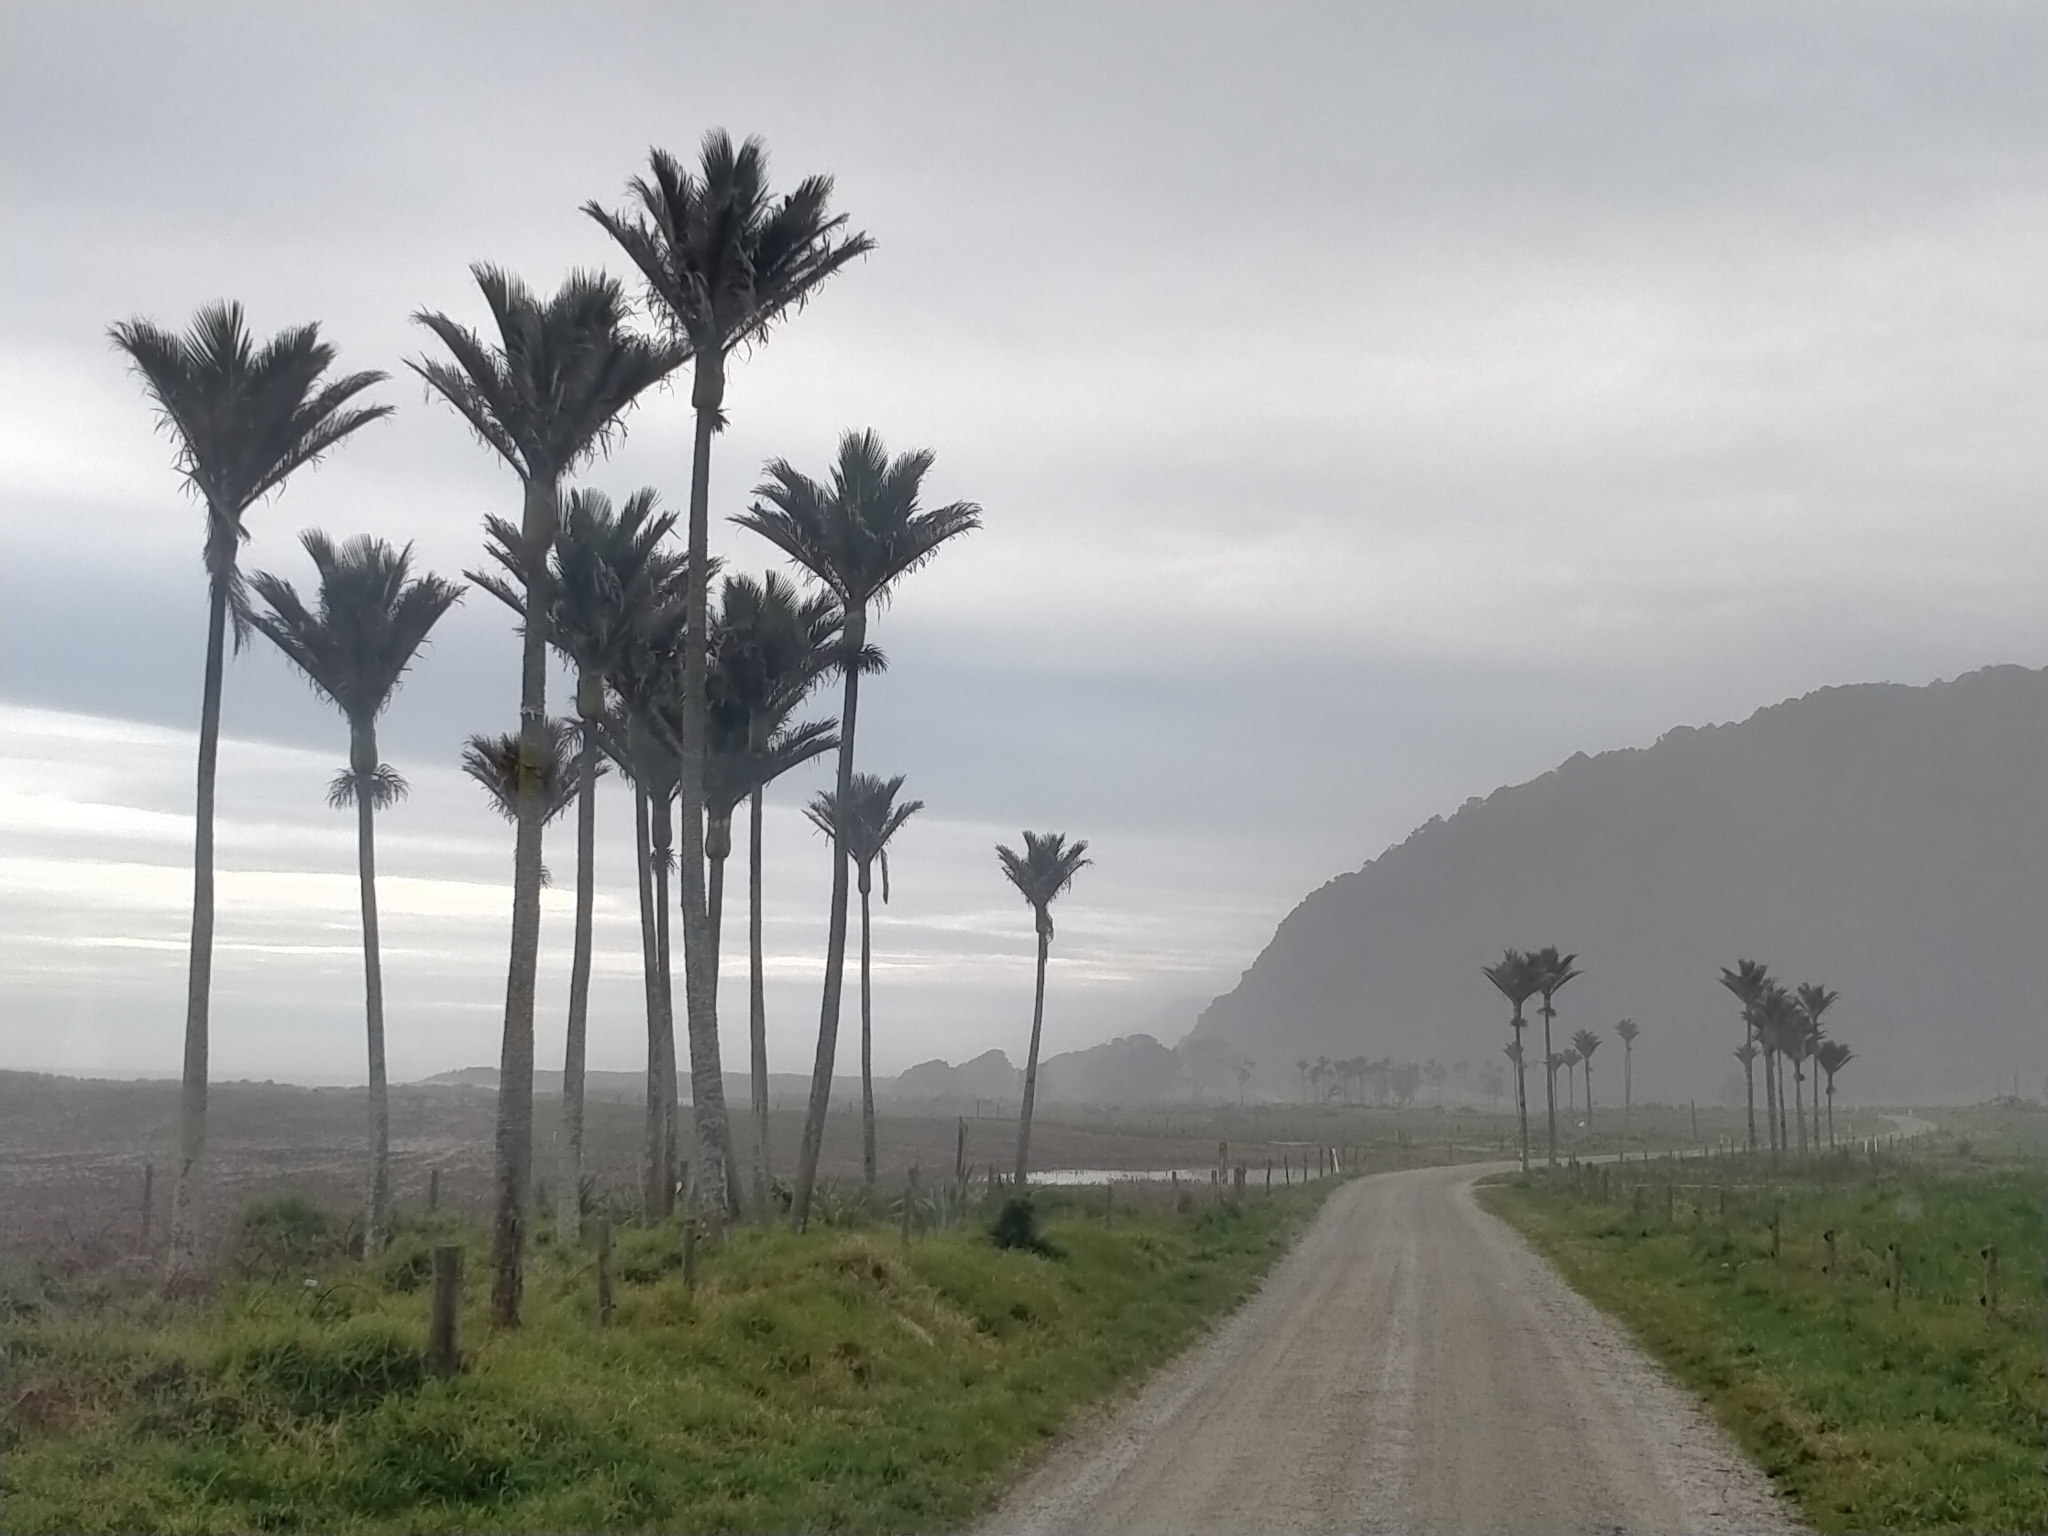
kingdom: Plantae
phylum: Tracheophyta
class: Liliopsida
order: Arecales
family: Arecaceae
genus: Rhopalostylis
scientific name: Rhopalostylis sapida
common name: Feather-duster palm
